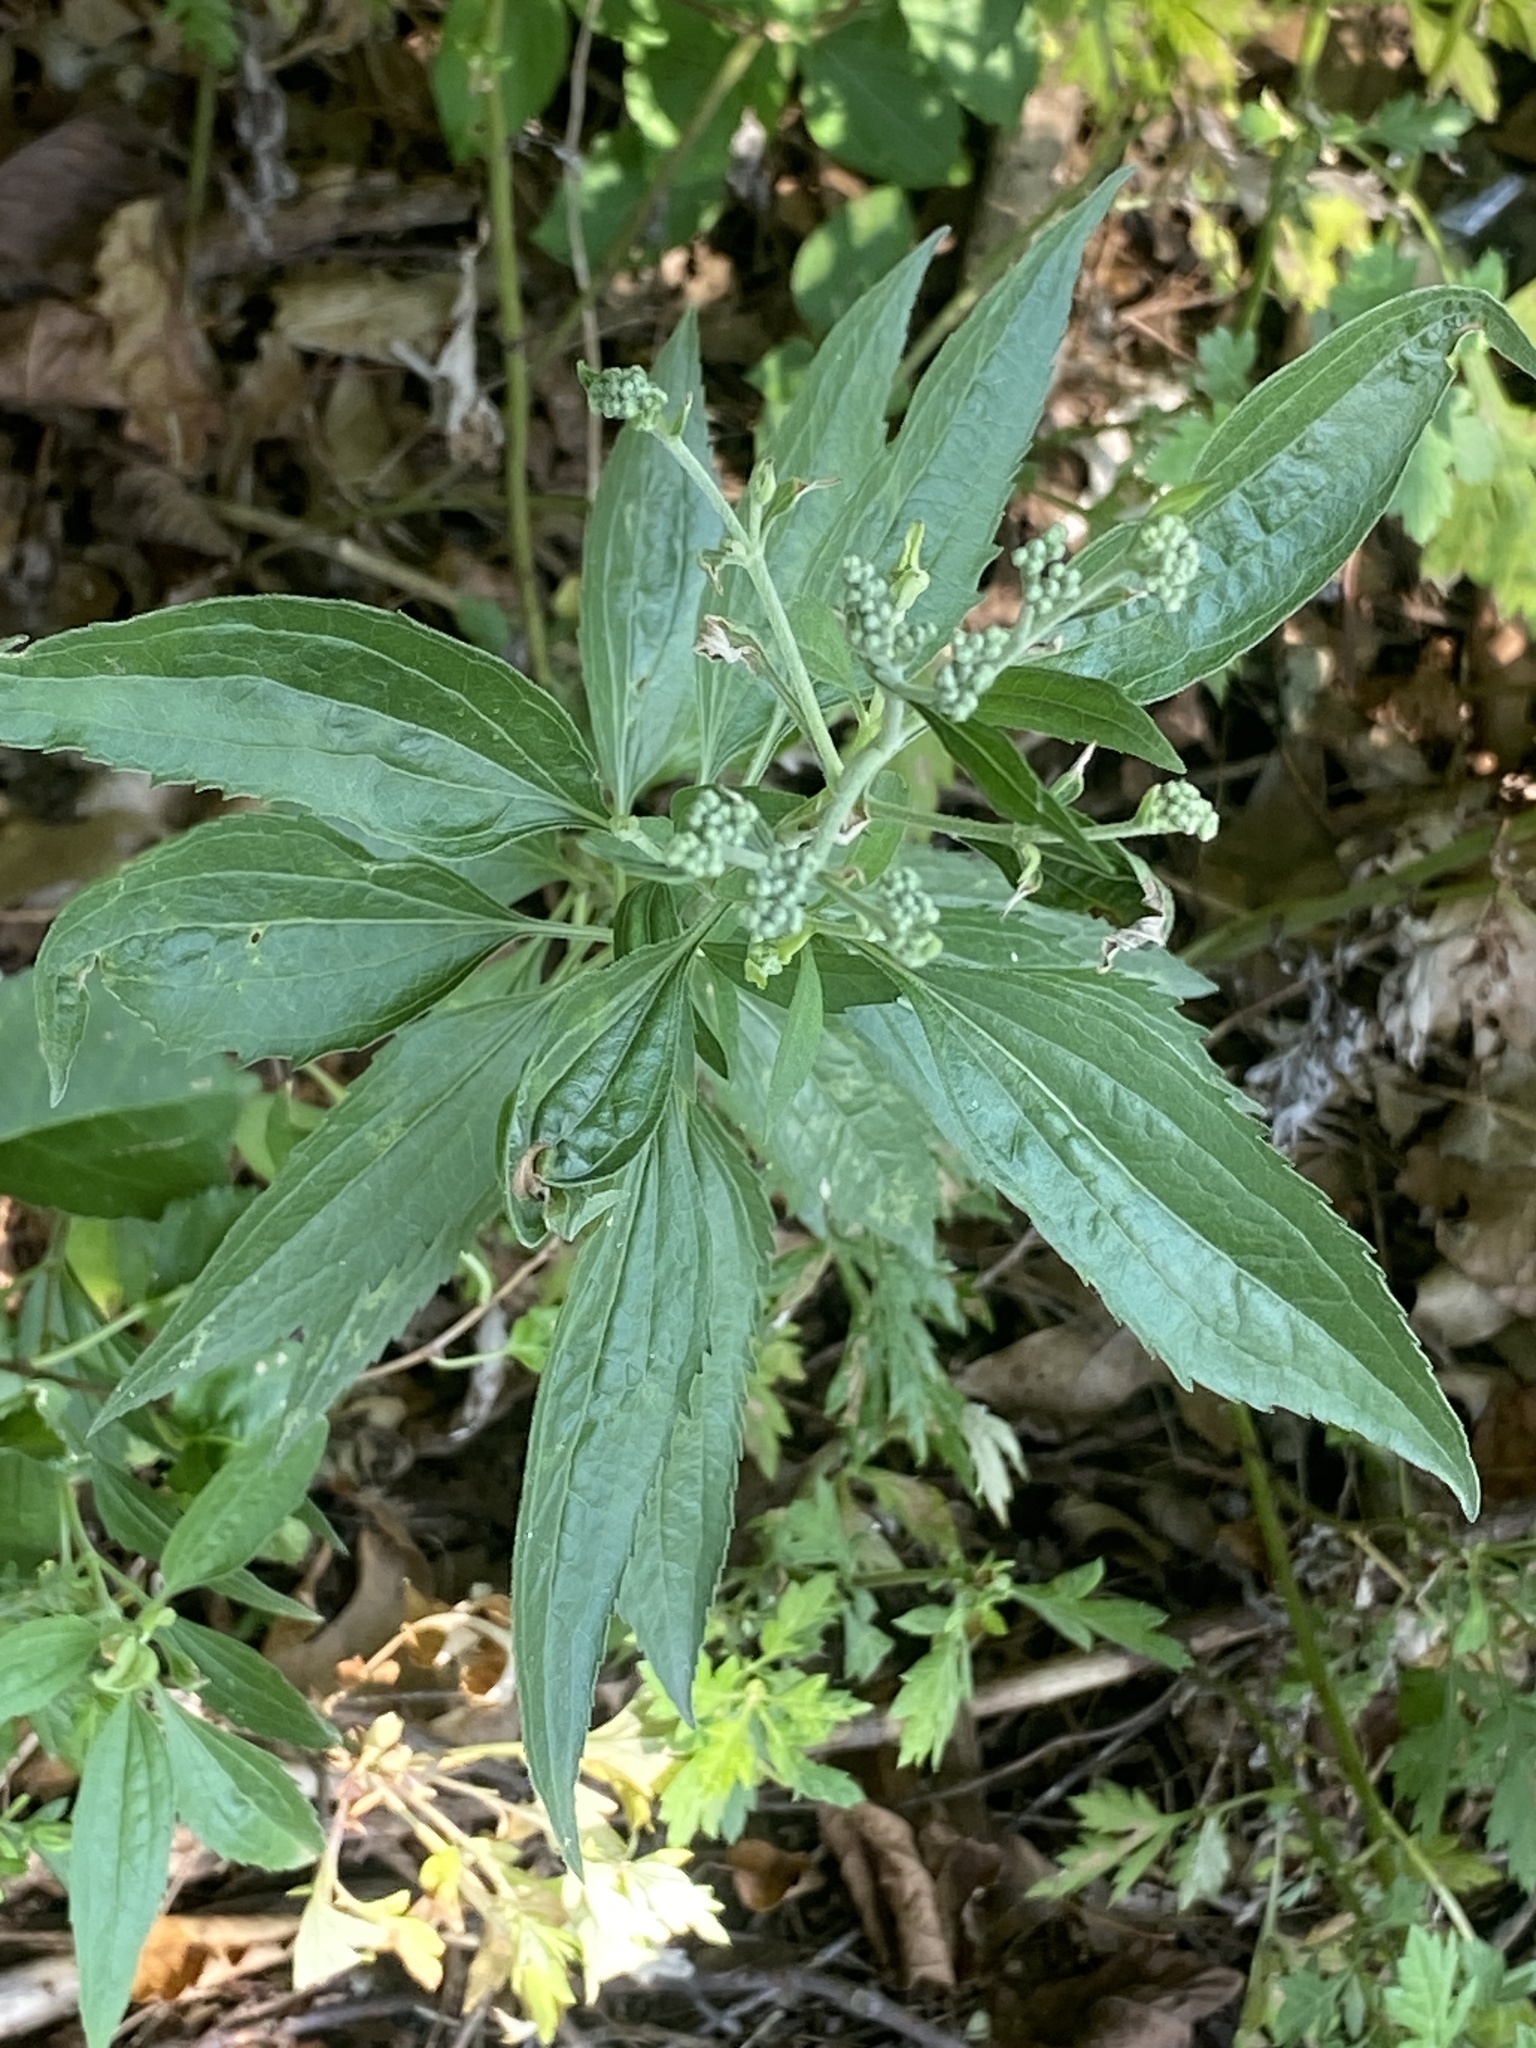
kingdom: Plantae
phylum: Tracheophyta
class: Magnoliopsida
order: Asterales
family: Asteraceae
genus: Eupatorium
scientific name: Eupatorium serotinum
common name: Late boneset
